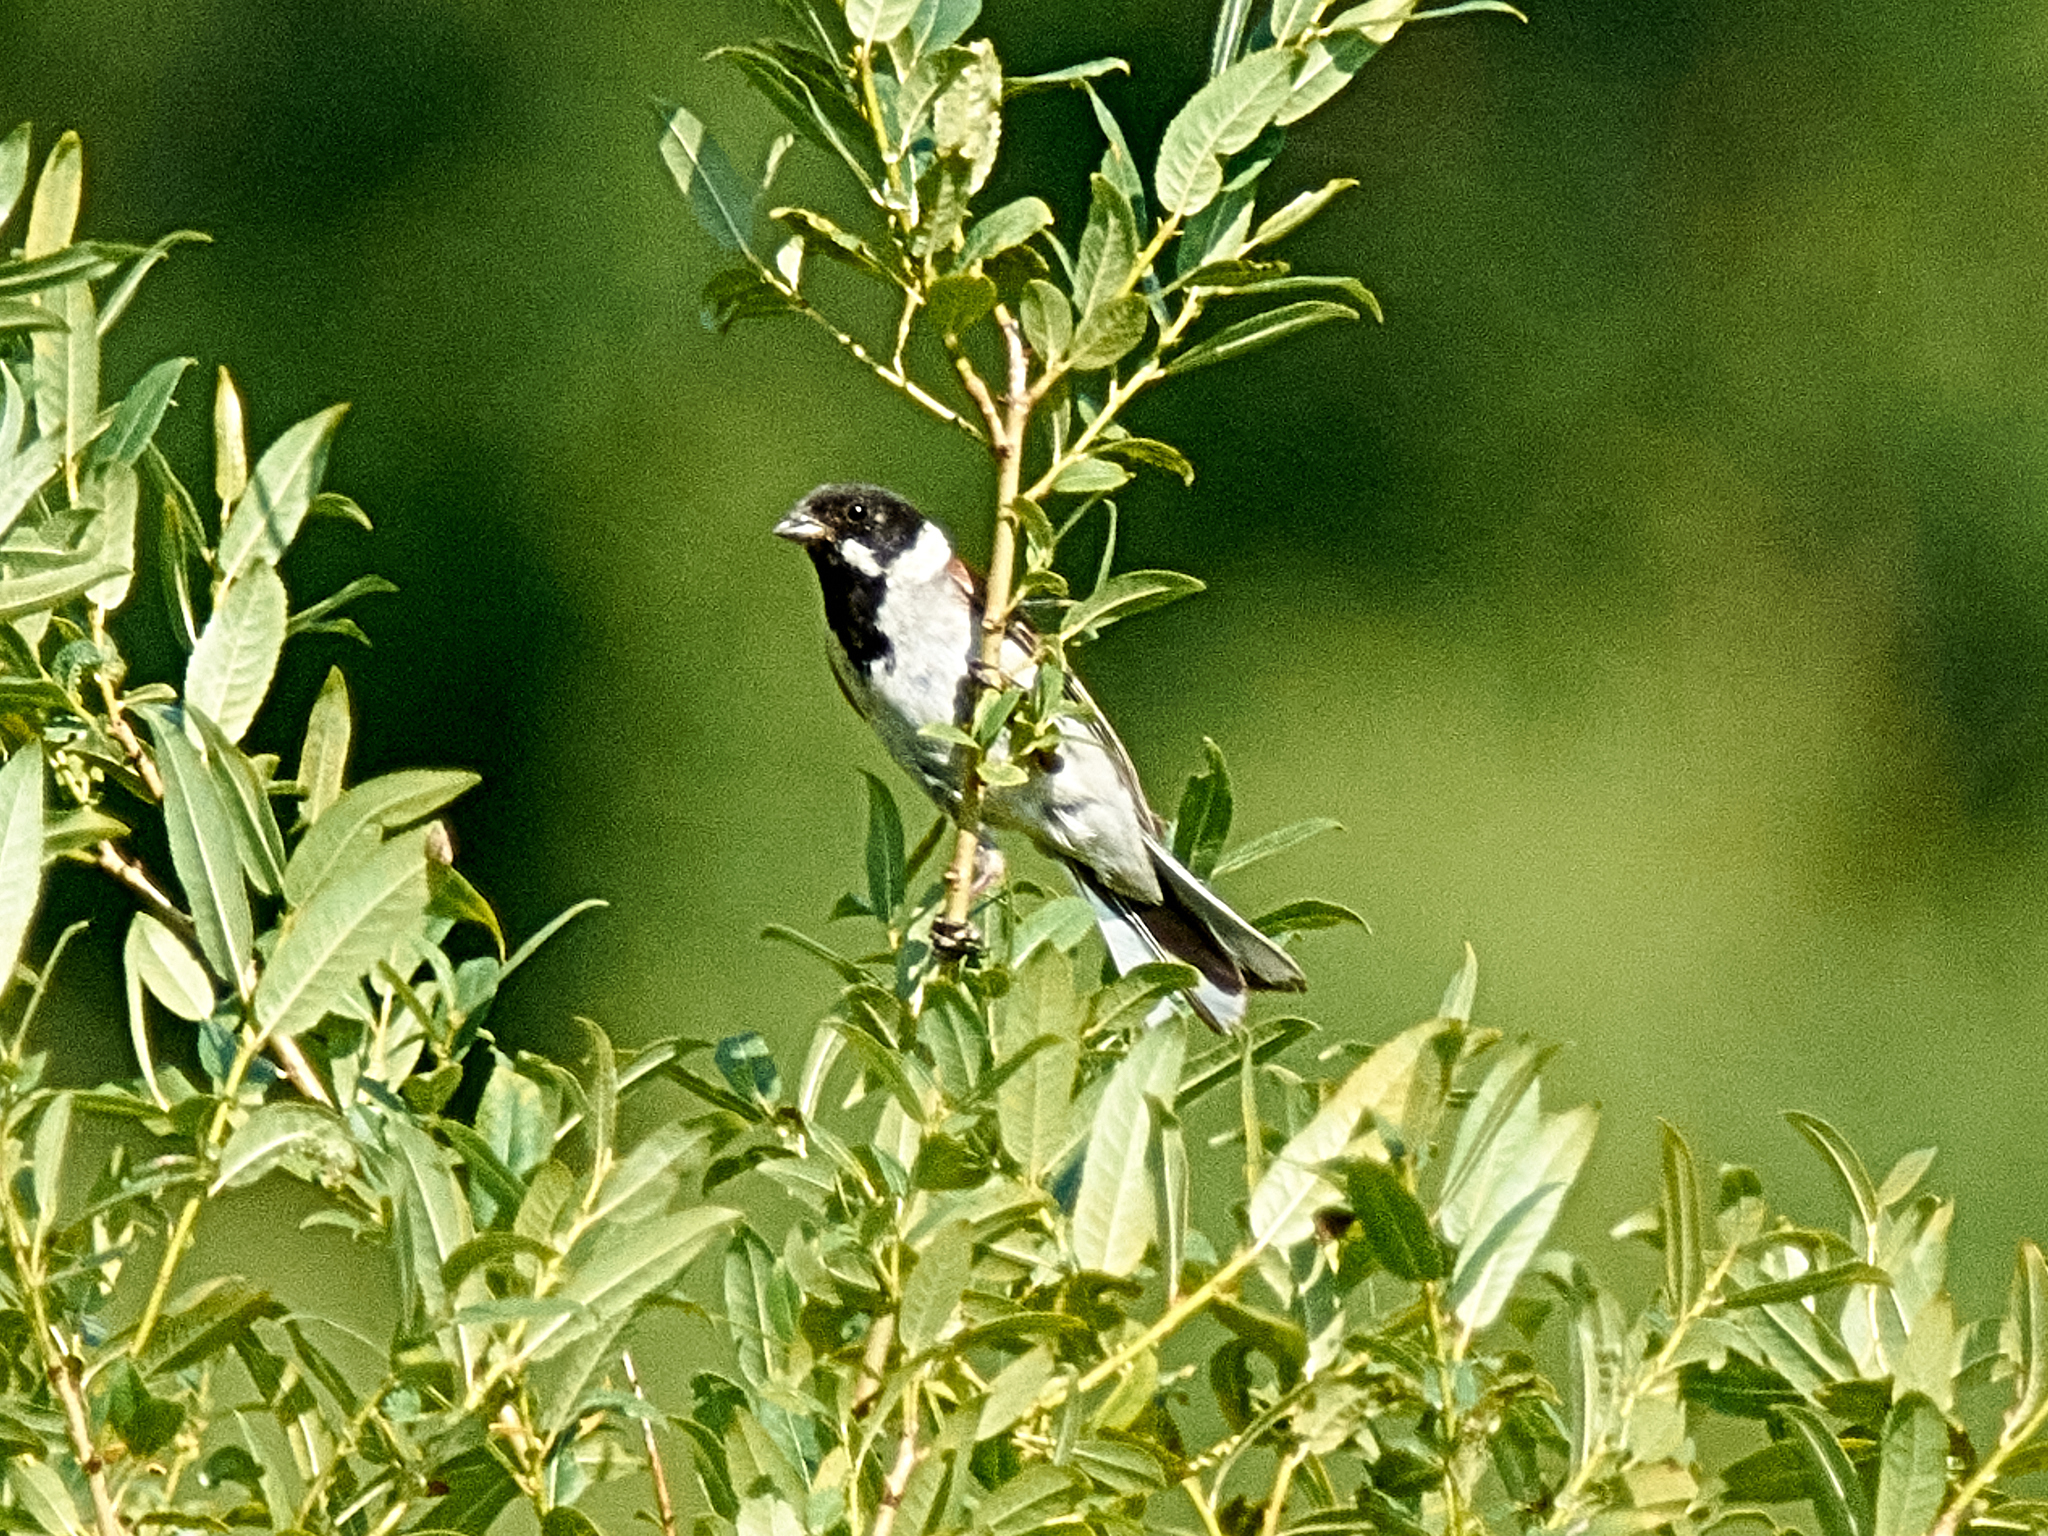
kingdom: Animalia
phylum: Chordata
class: Aves
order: Passeriformes
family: Emberizidae
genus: Emberiza
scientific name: Emberiza schoeniclus
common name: Reed bunting
